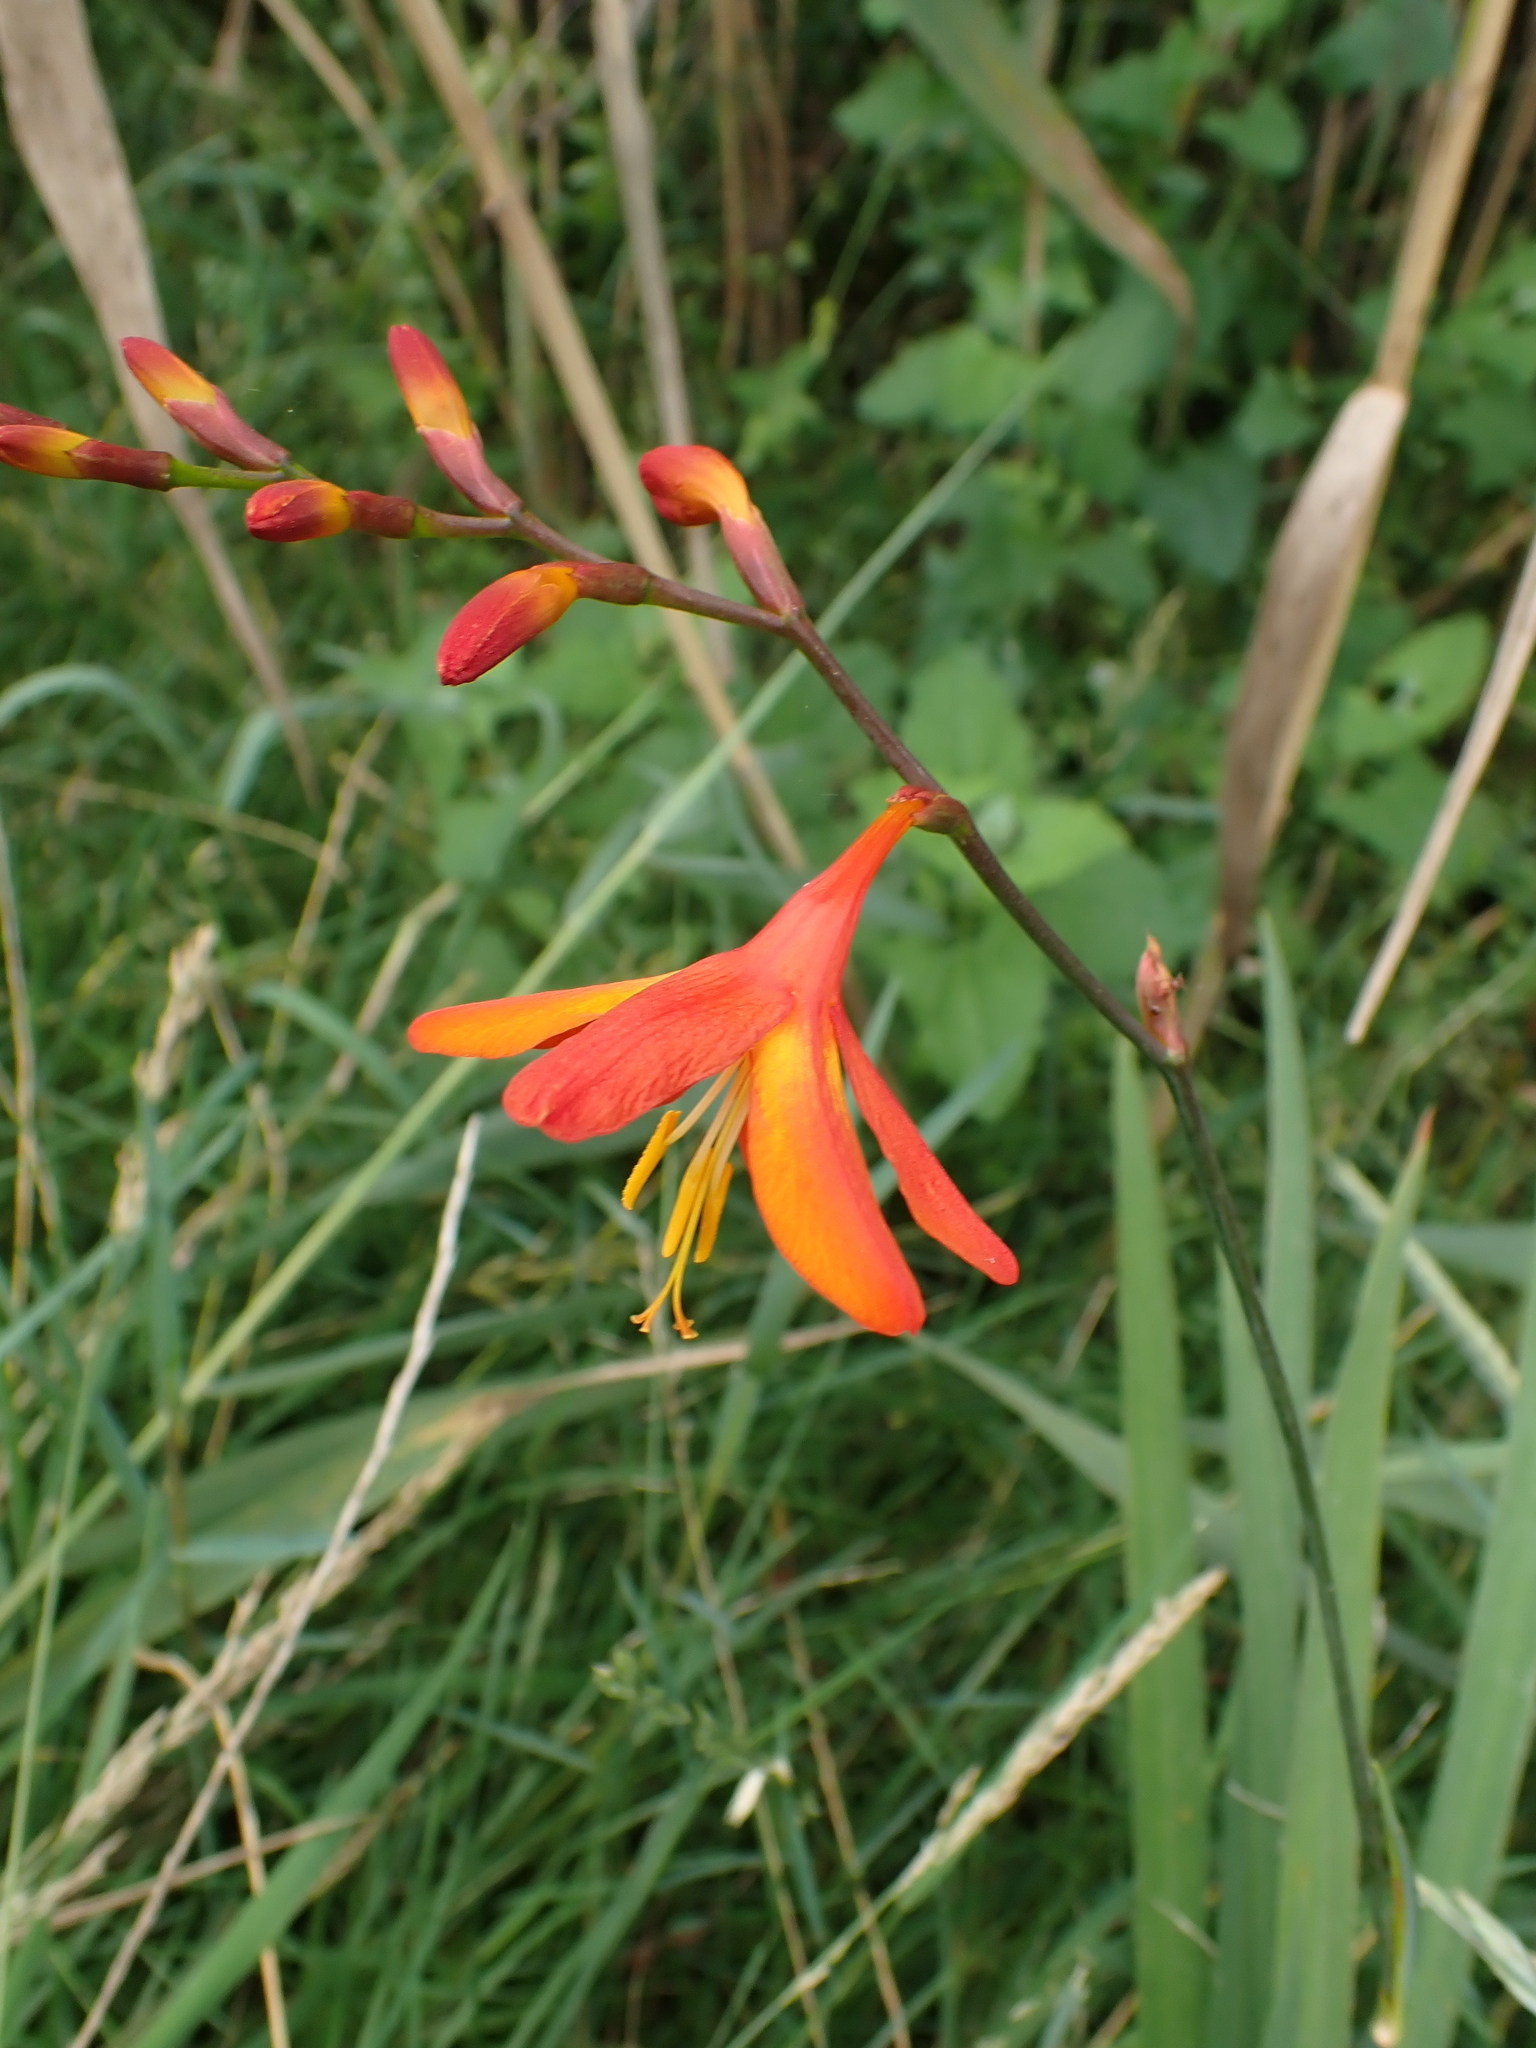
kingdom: Plantae
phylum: Tracheophyta
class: Liliopsida
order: Asparagales
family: Iridaceae
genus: Crocosmia
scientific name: Crocosmia crocosmiiflora
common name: Montbretia
